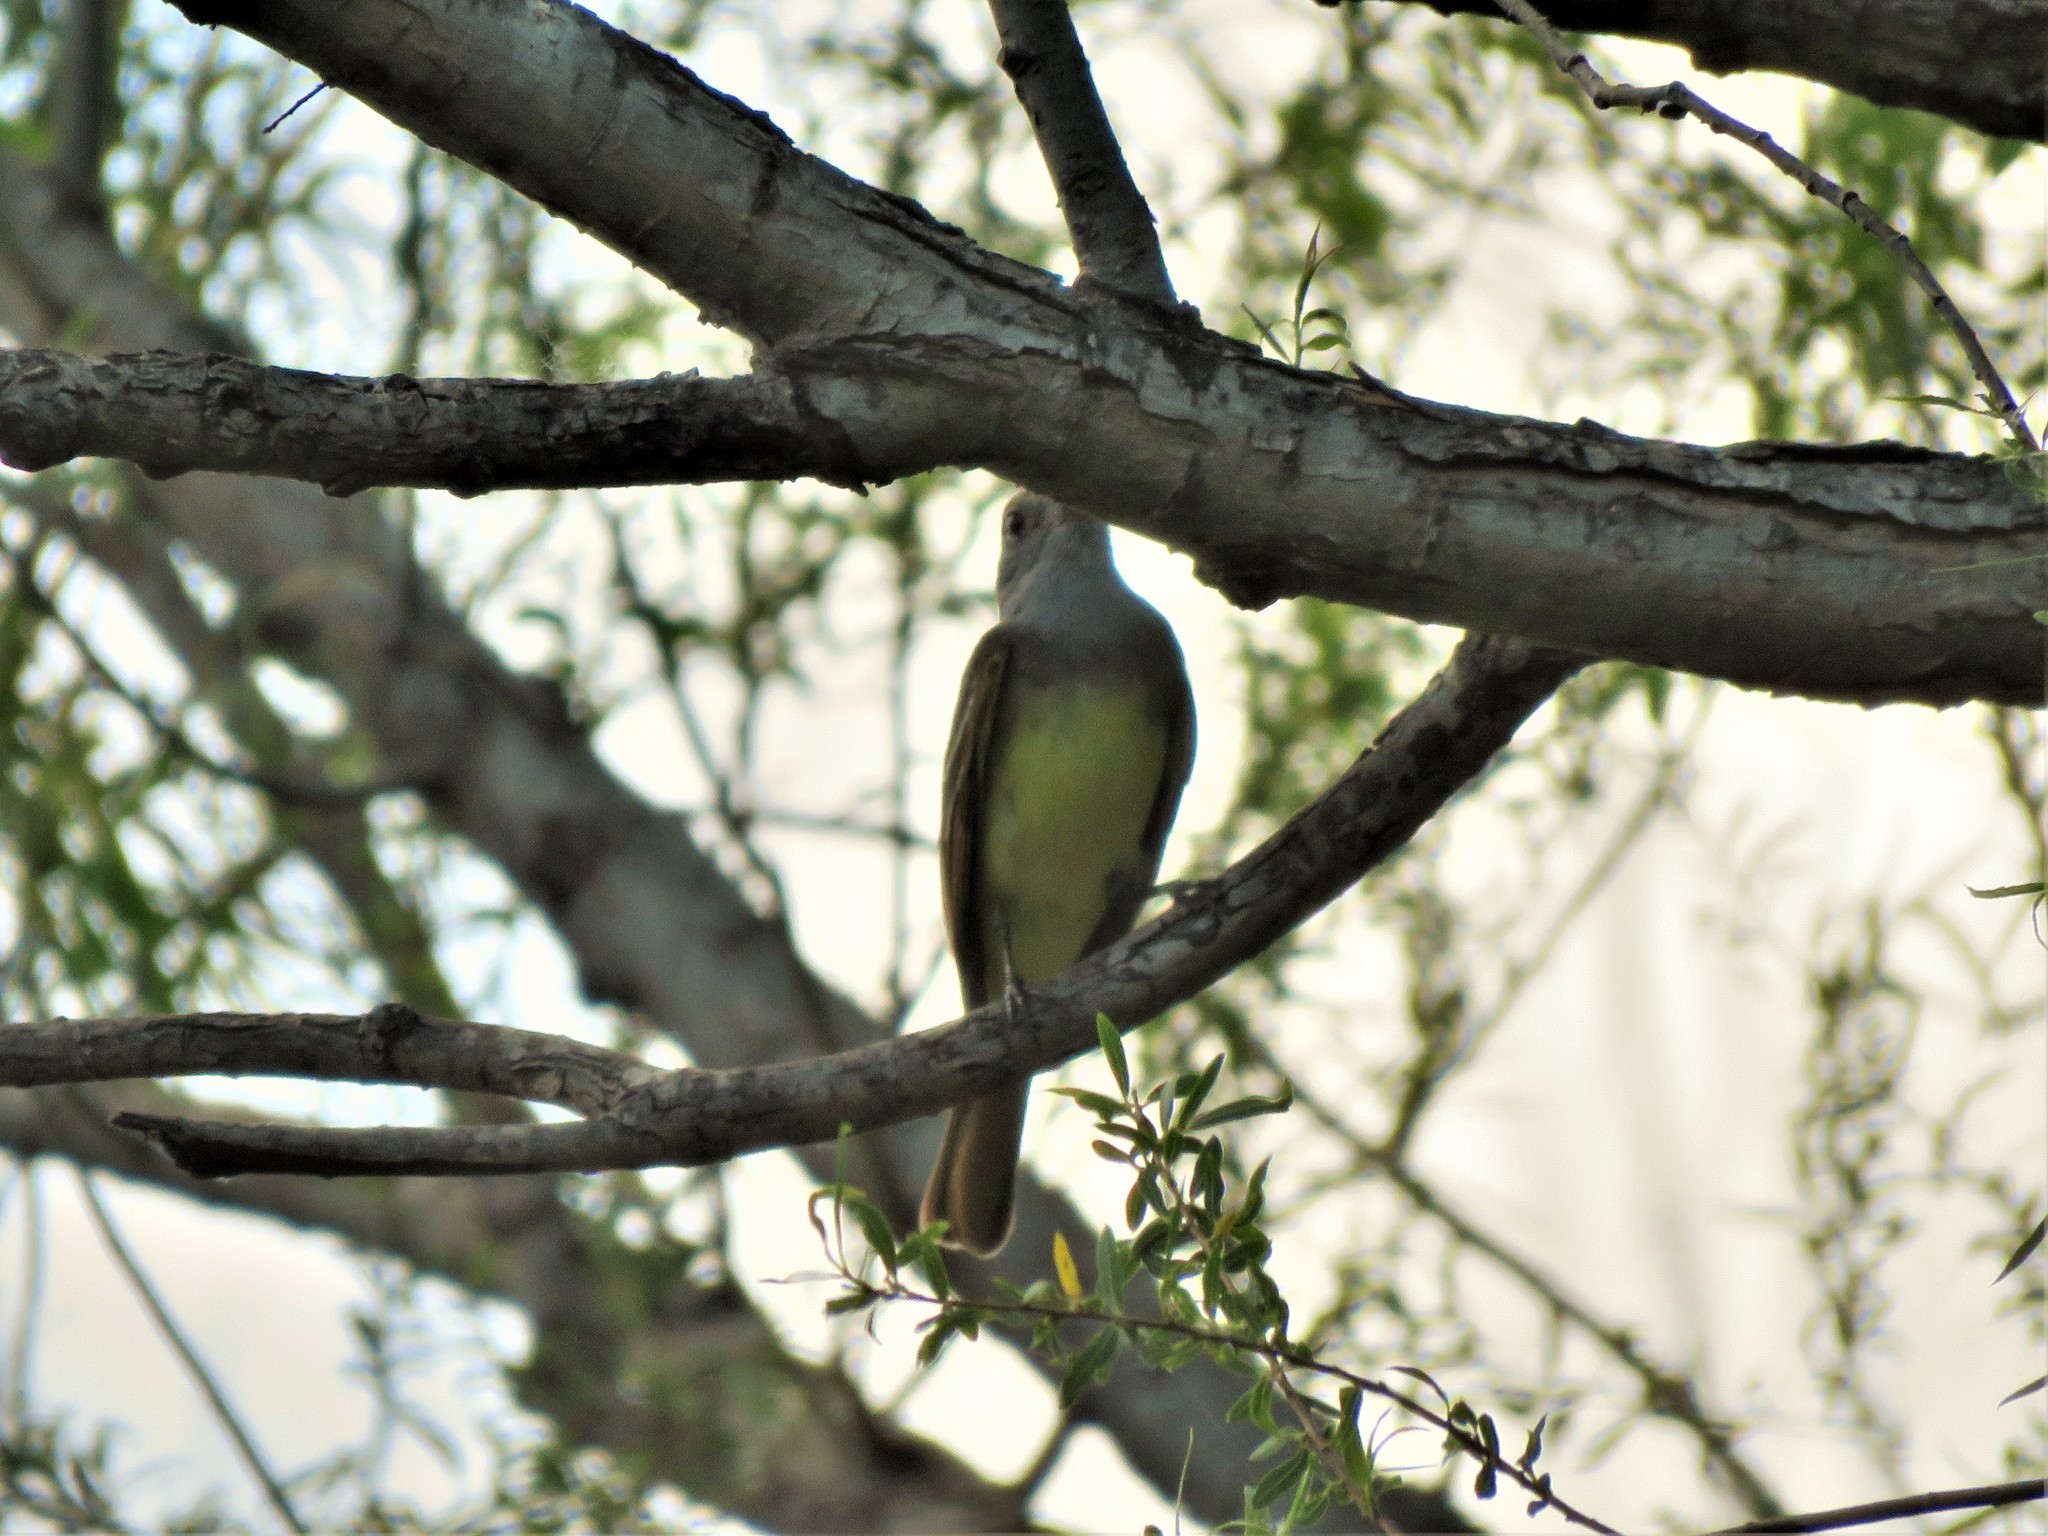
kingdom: Animalia
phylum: Chordata
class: Aves
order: Passeriformes
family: Tyrannidae
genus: Myiarchus
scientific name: Myiarchus crinitus
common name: Great crested flycatcher
